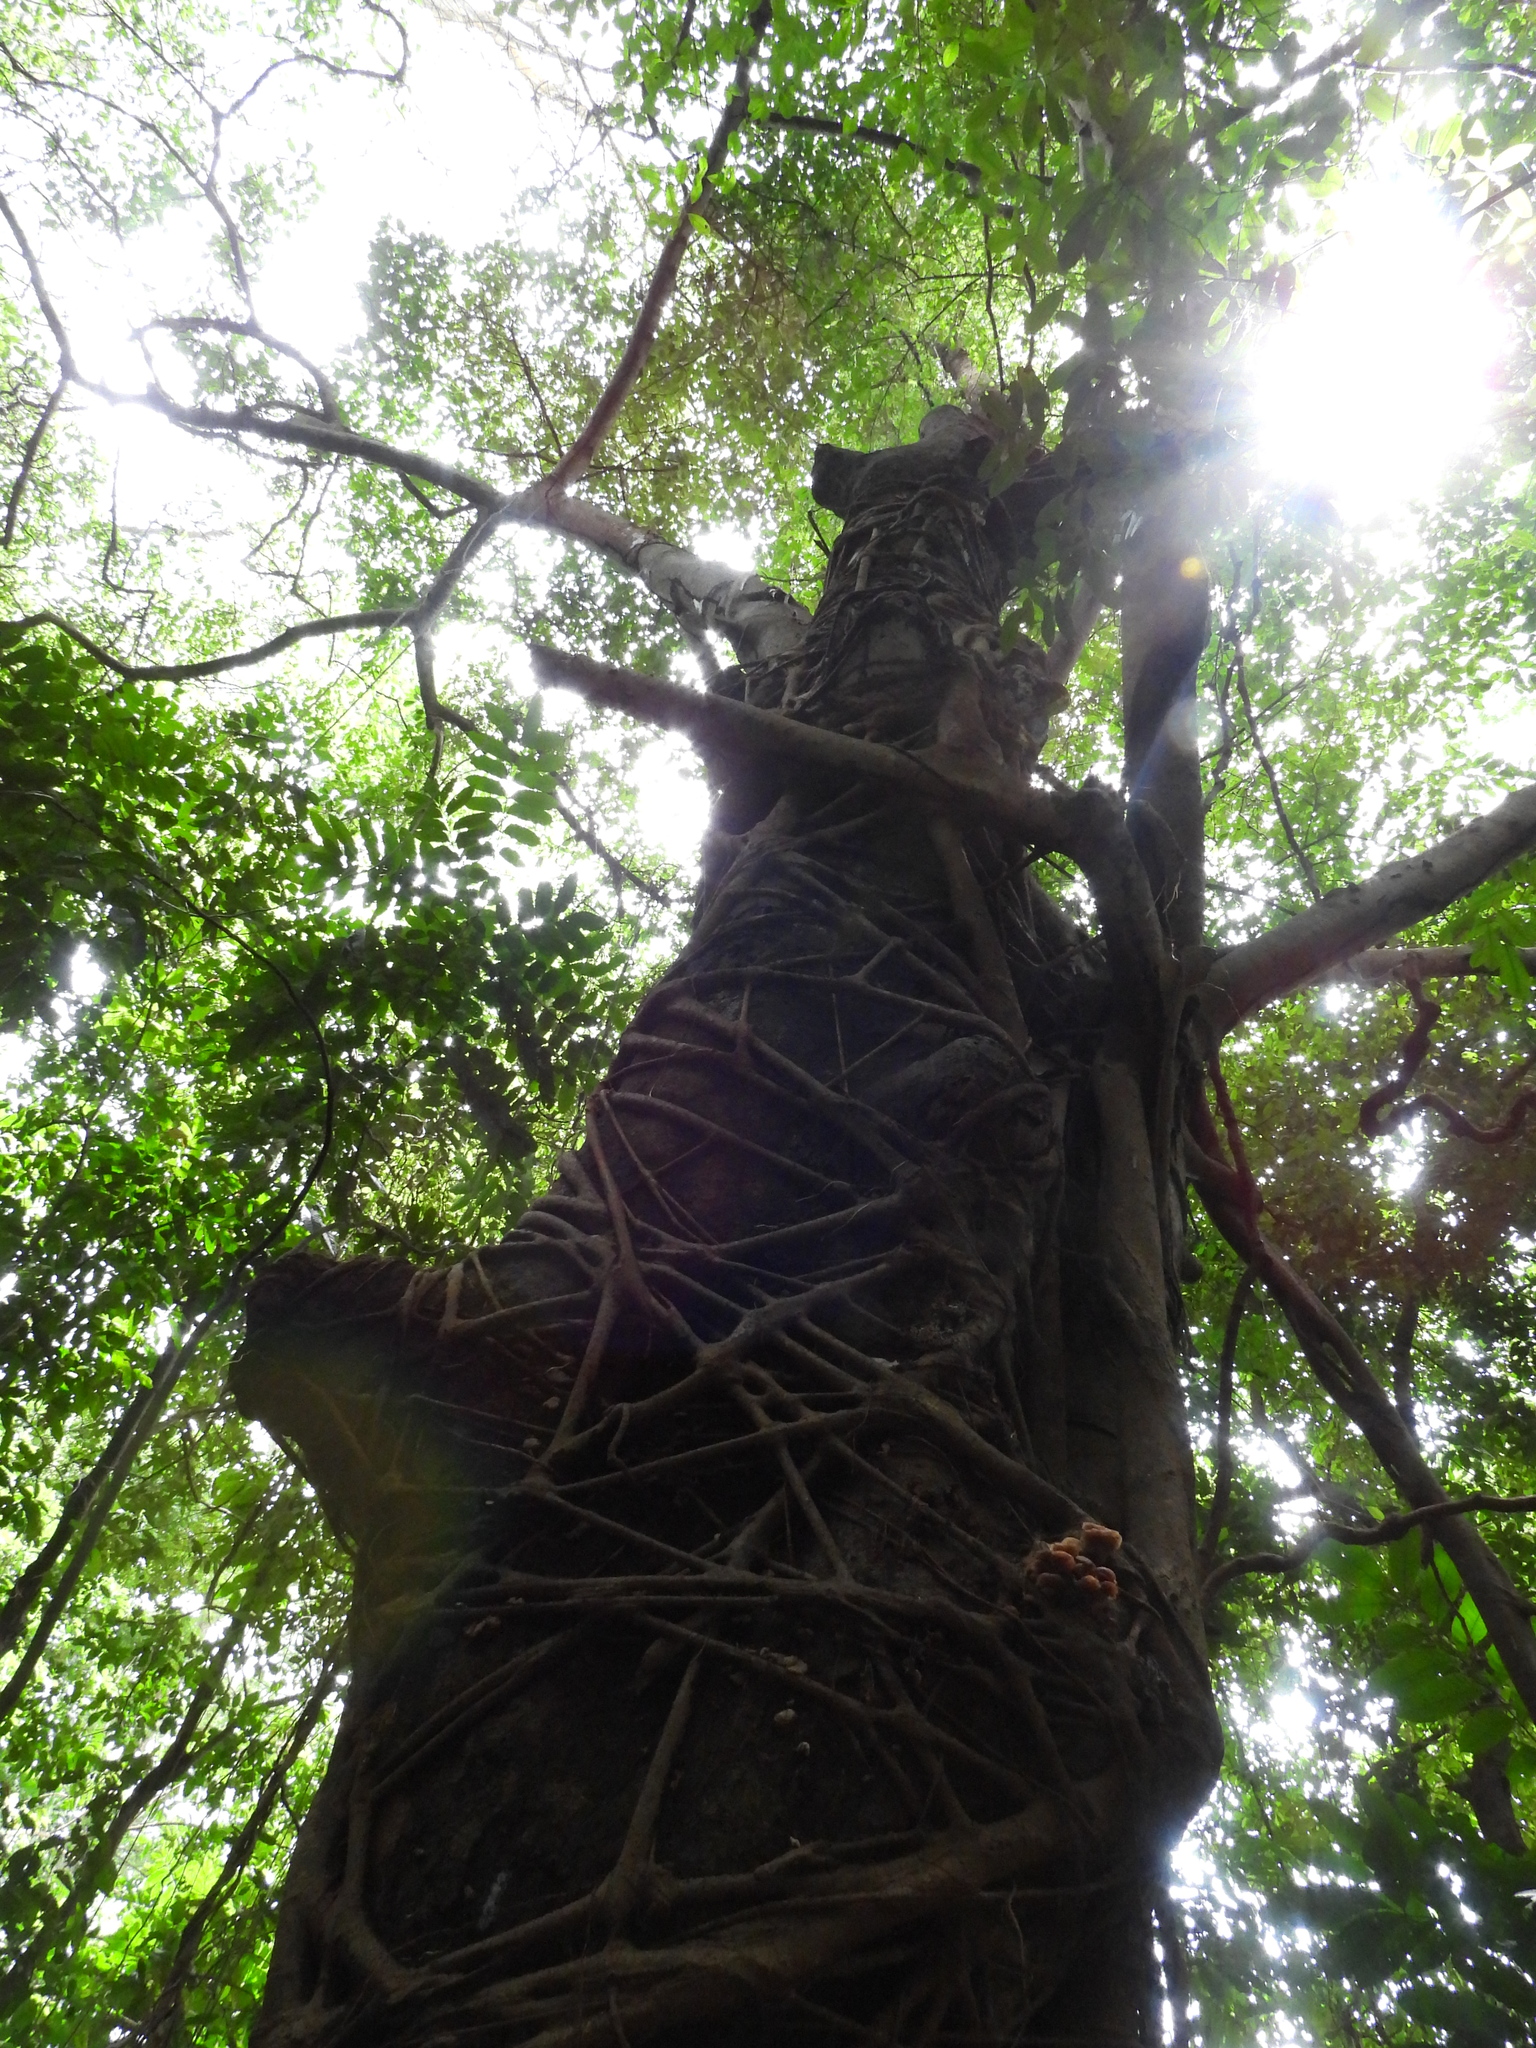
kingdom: Plantae
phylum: Tracheophyta
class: Magnoliopsida
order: Rosales
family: Moraceae
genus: Ficus
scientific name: Ficus virens
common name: Spotted fig
